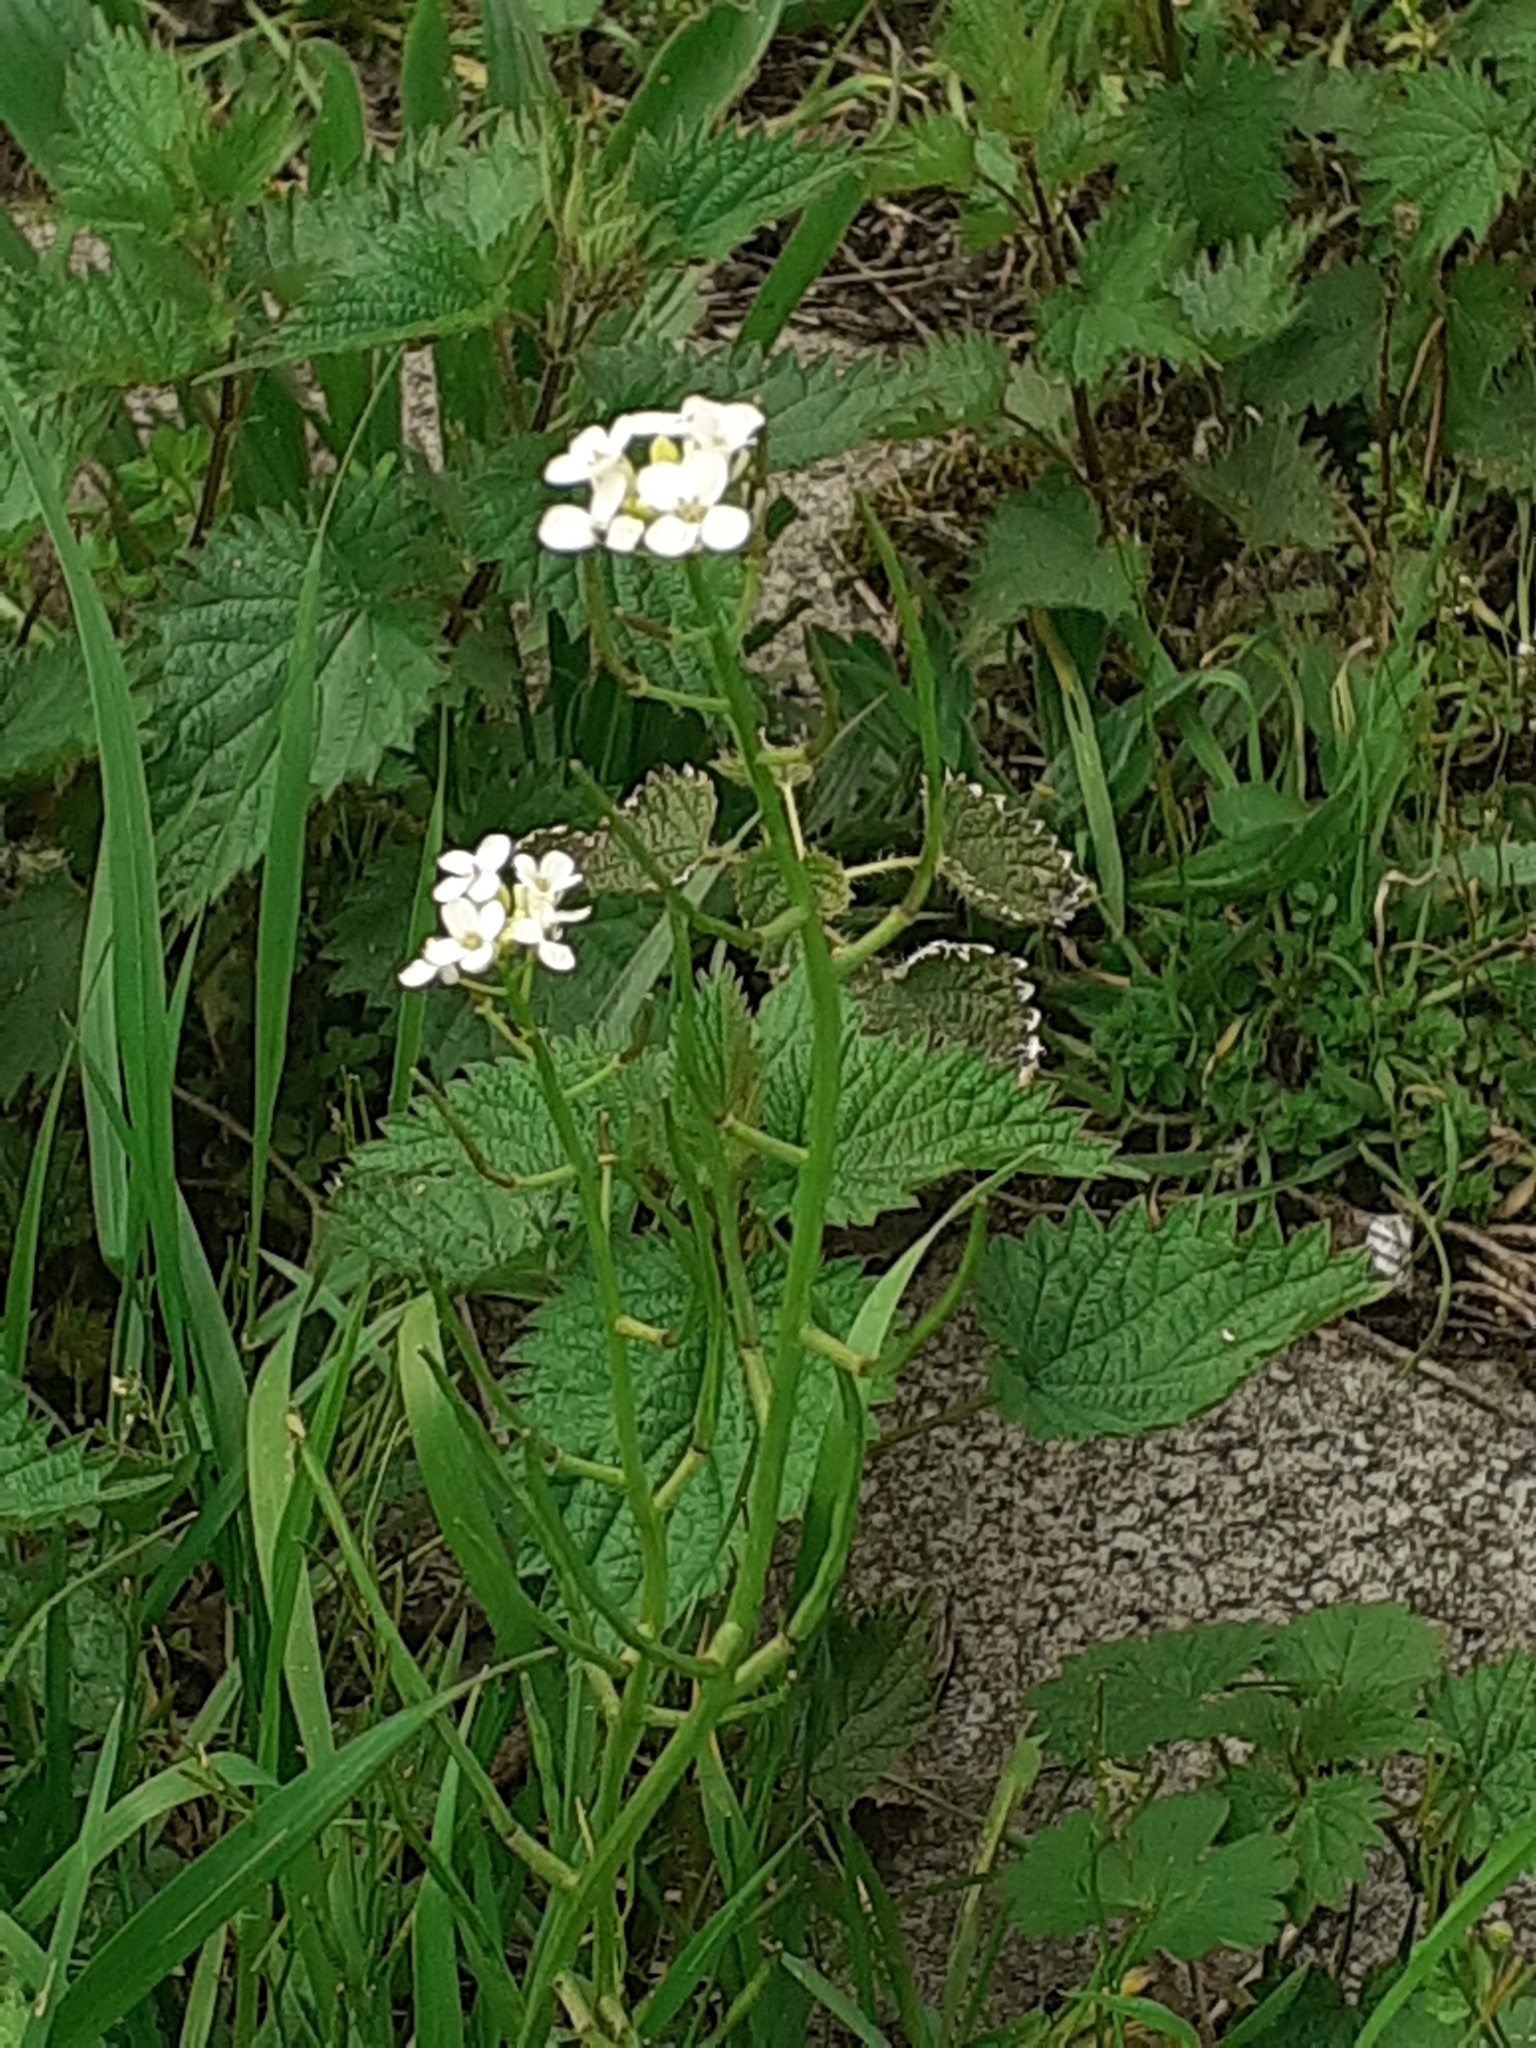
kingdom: Plantae
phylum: Tracheophyta
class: Magnoliopsida
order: Brassicales
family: Brassicaceae
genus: Alliaria
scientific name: Alliaria petiolata
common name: Garlic mustard
